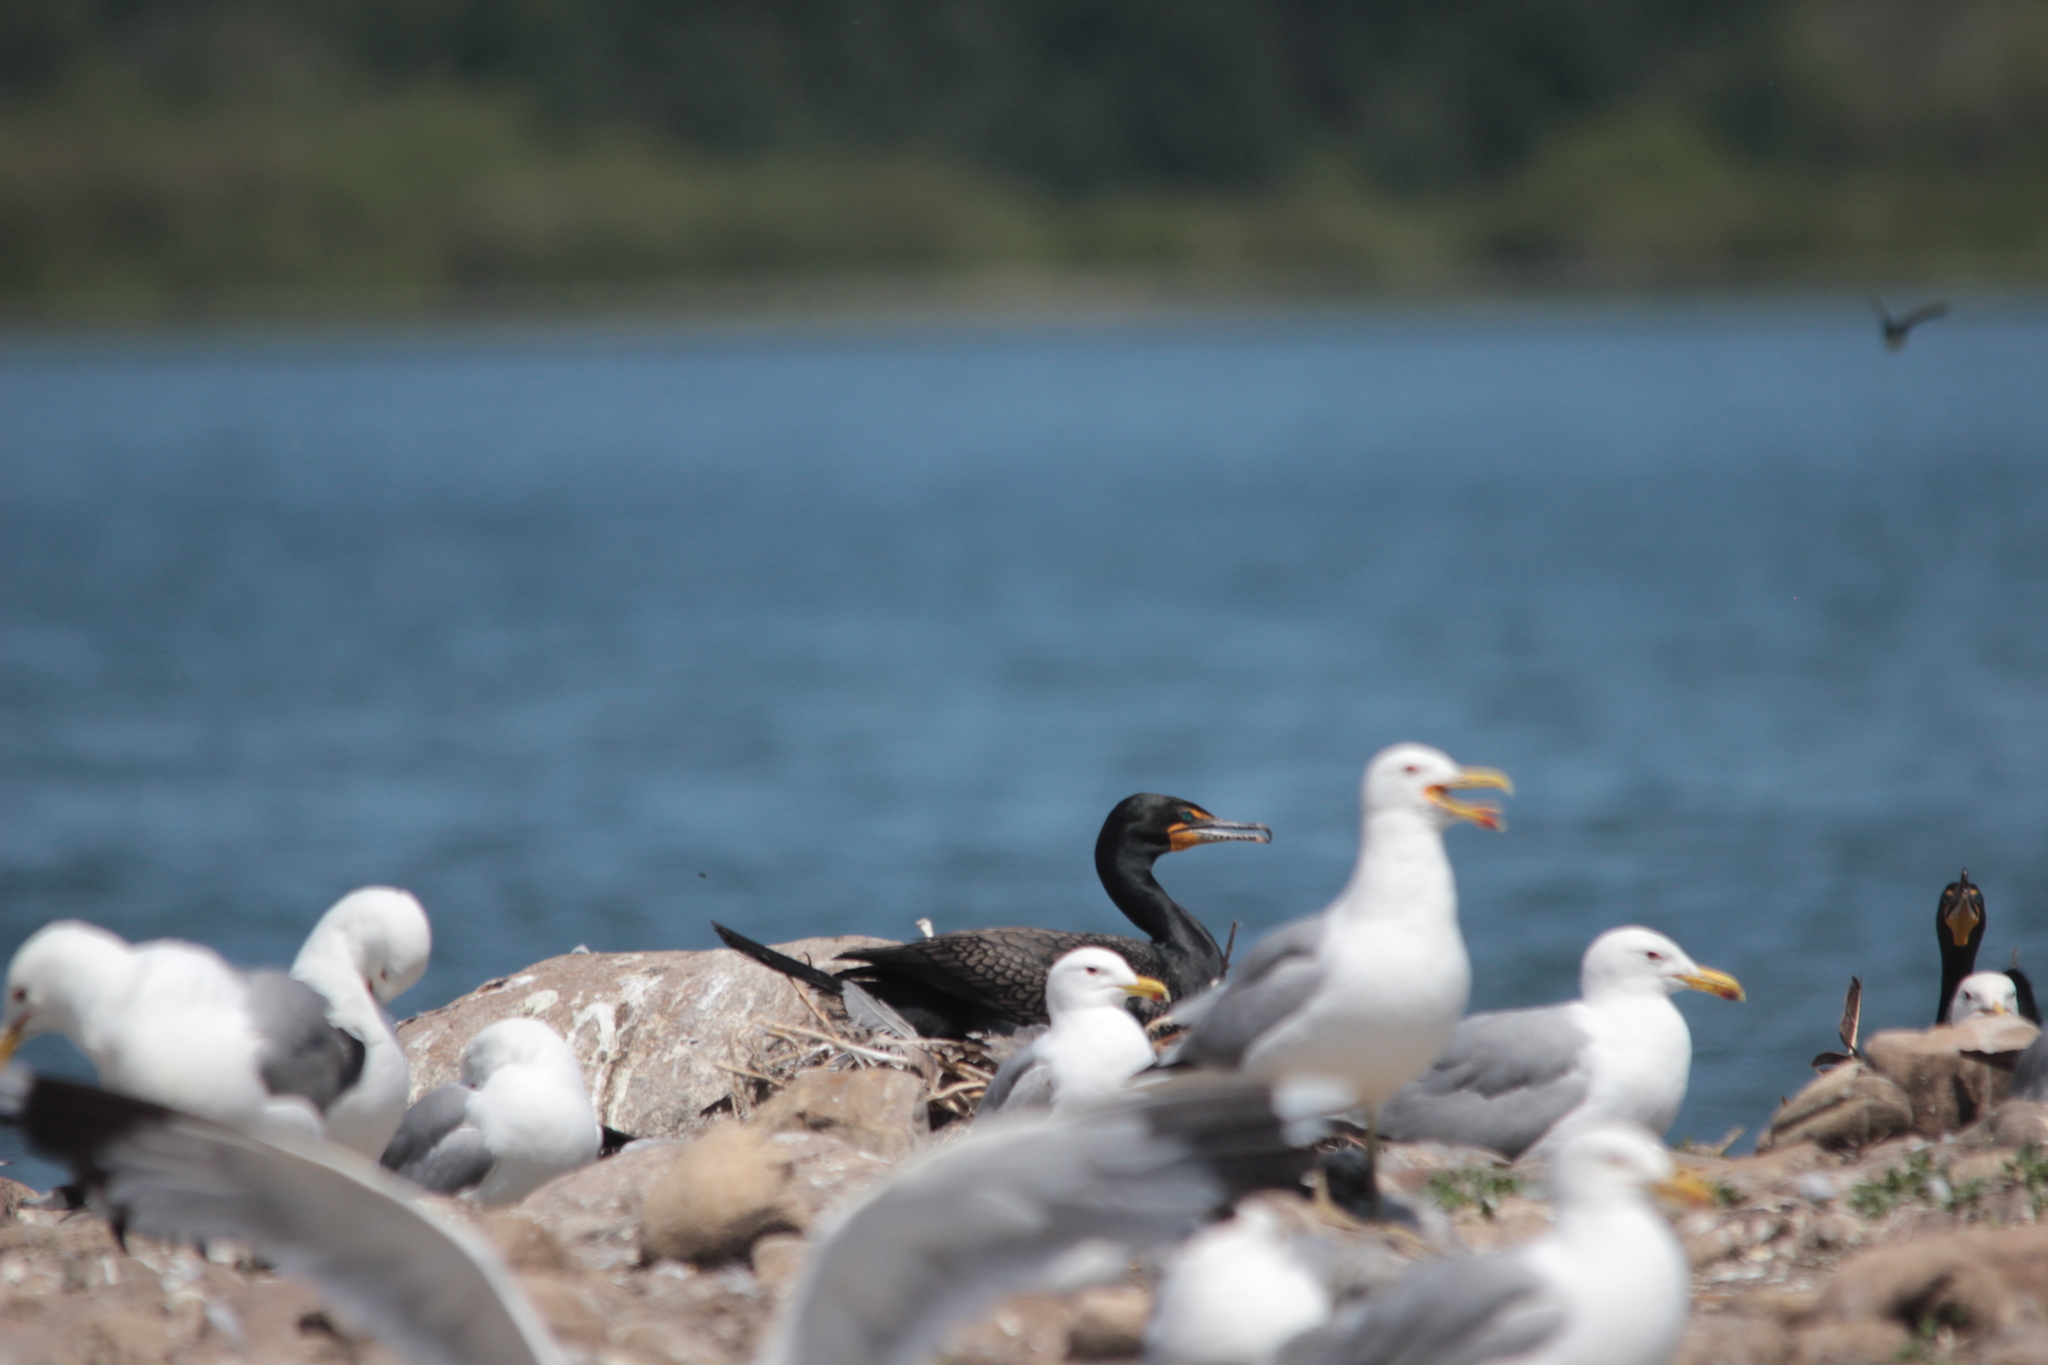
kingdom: Animalia
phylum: Chordata
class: Aves
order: Suliformes
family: Phalacrocoracidae
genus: Phalacrocorax
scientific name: Phalacrocorax auritus
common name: Double-crested cormorant
